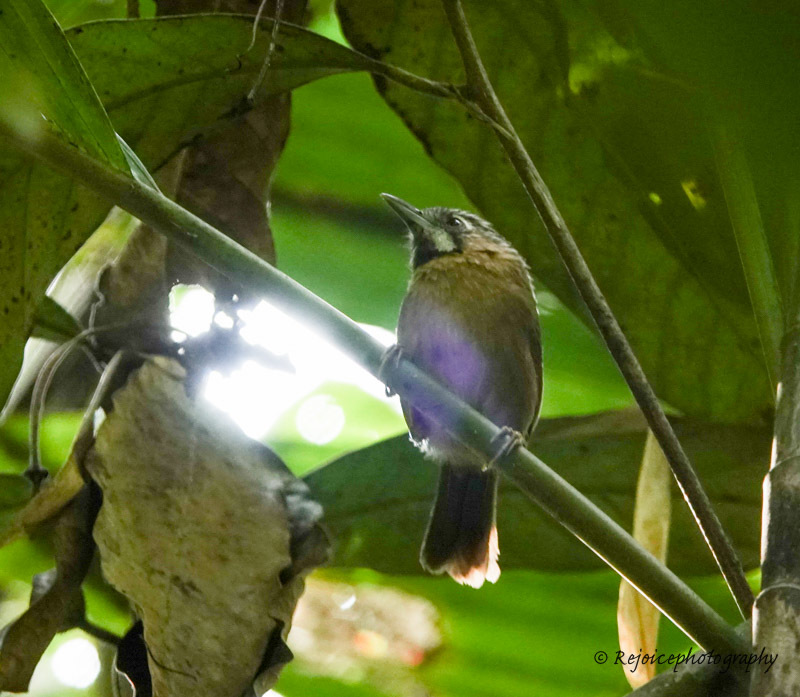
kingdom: Animalia
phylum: Chordata
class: Aves
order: Passeriformes
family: Timaliidae
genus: Stachyris
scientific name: Stachyris nigriceps
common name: Grey-throated babbler
